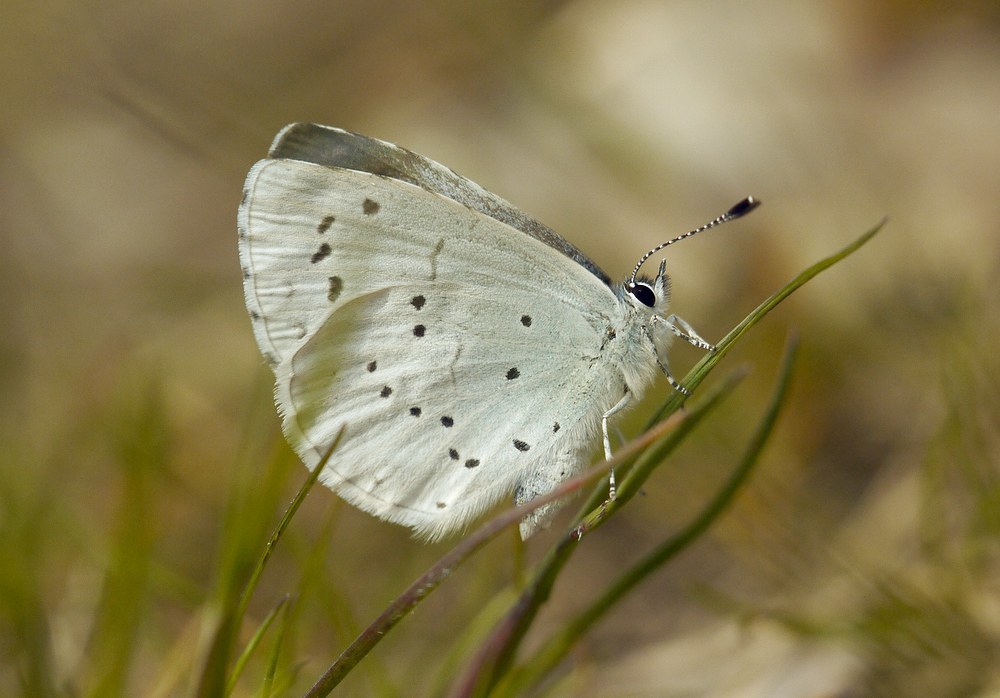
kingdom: Animalia
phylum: Arthropoda
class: Insecta
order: Lepidoptera
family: Lycaenidae
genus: Celastrina
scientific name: Celastrina argiolus
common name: Holly blue
